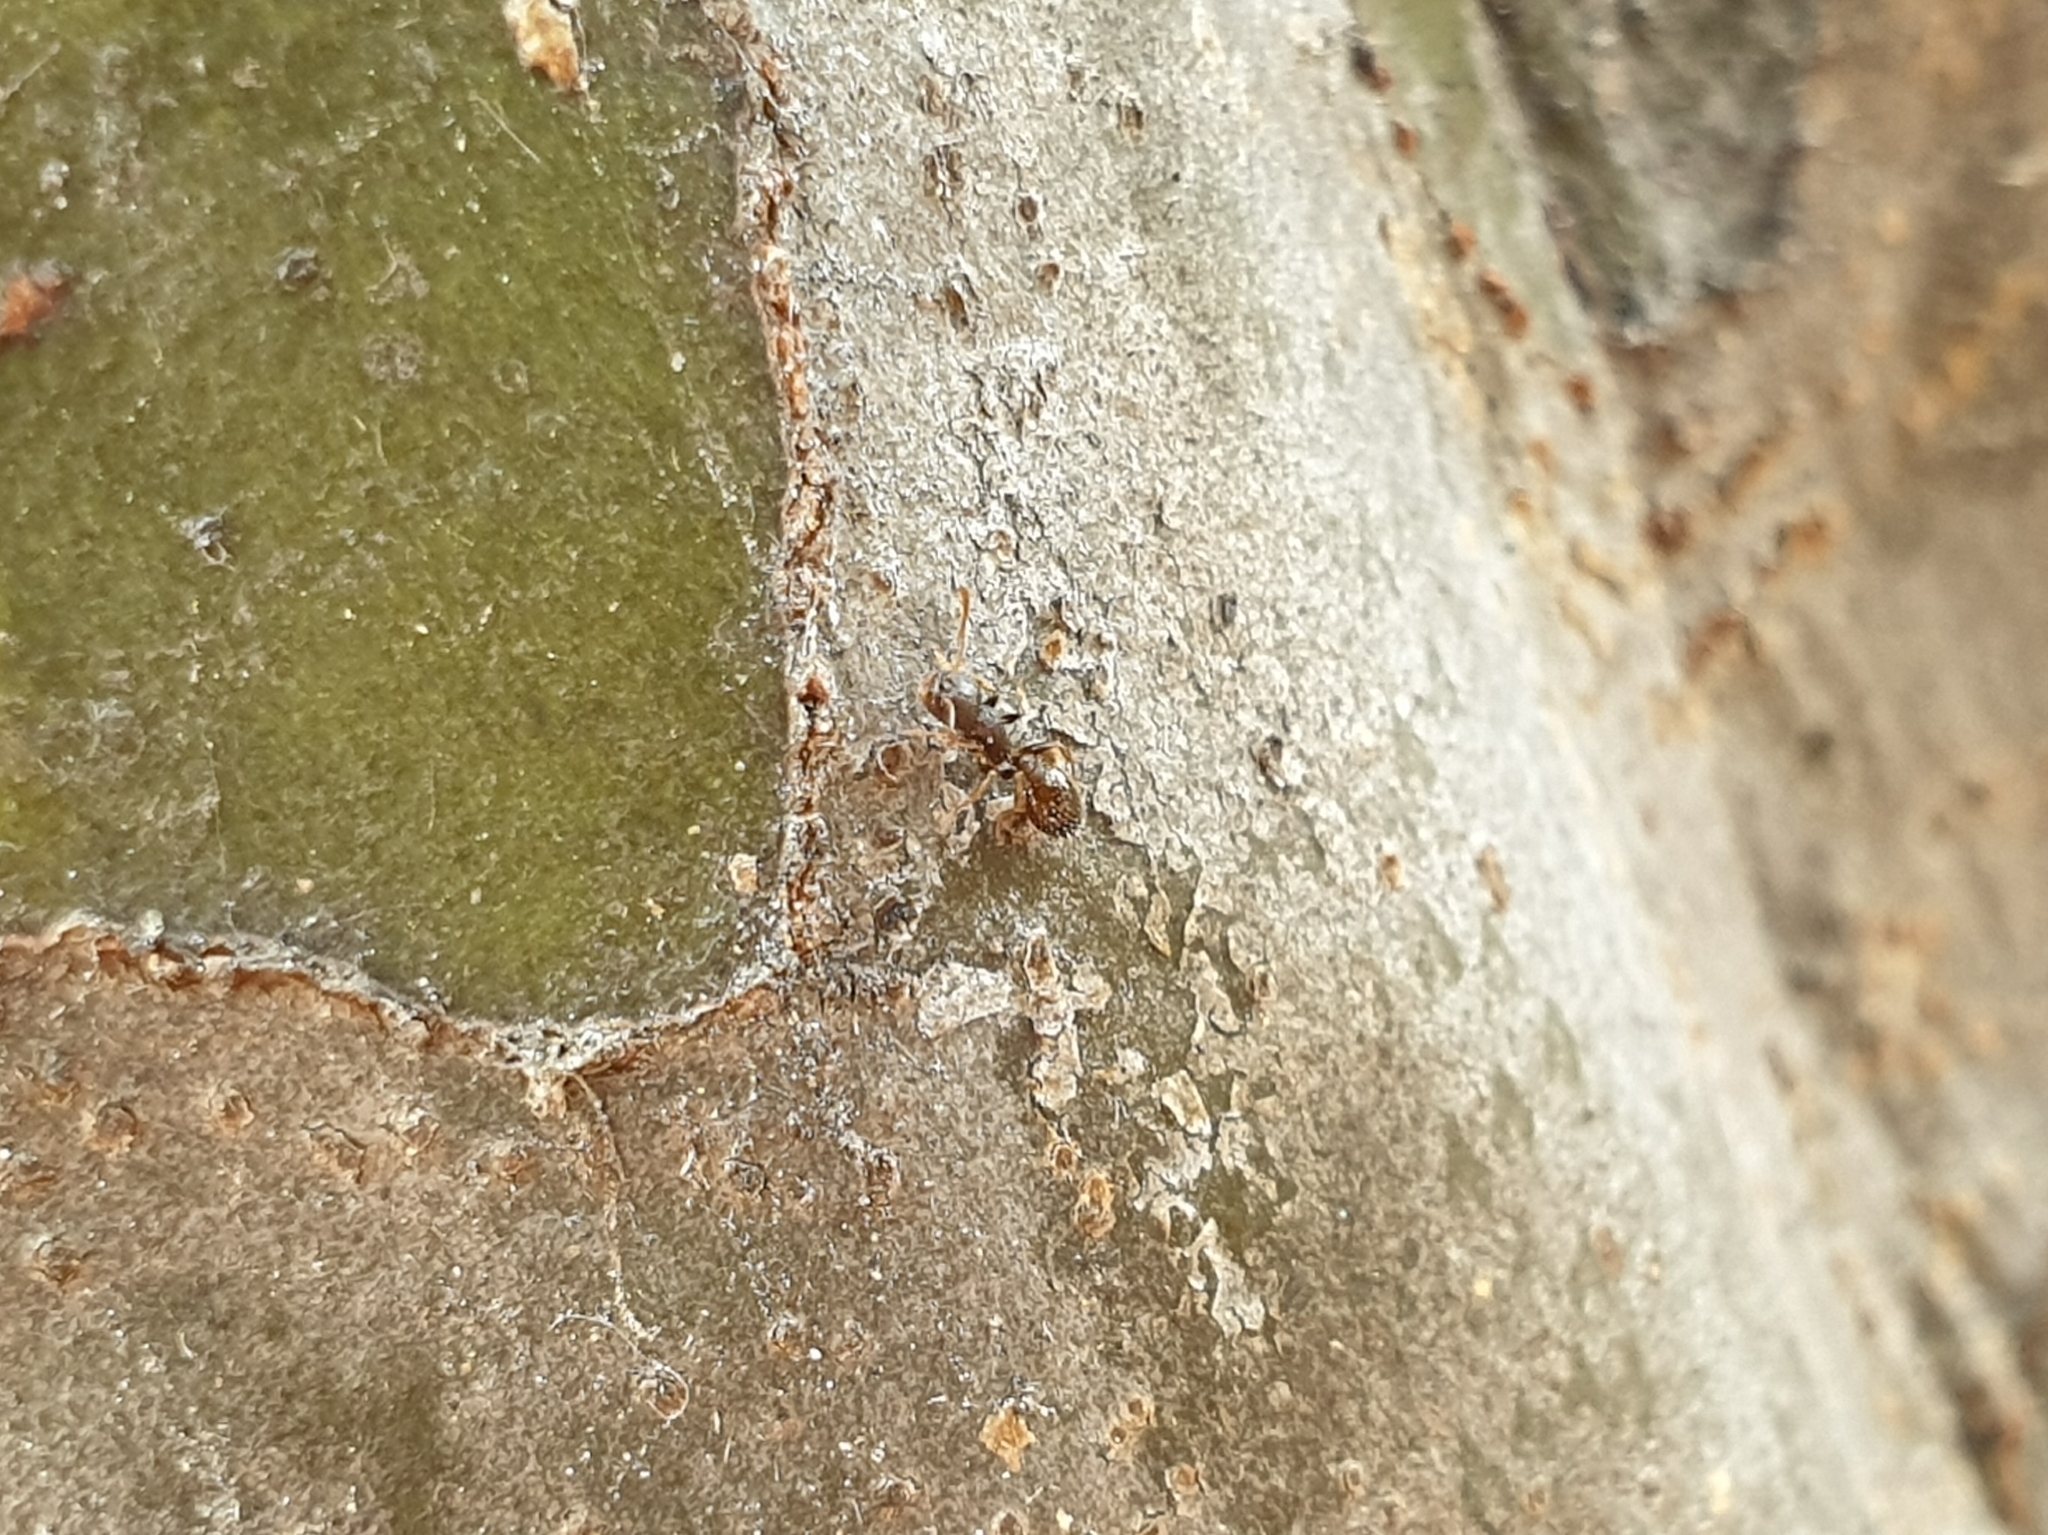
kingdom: Animalia
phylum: Arthropoda
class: Insecta
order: Hymenoptera
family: Formicidae
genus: Temnothorax
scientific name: Temnothorax
